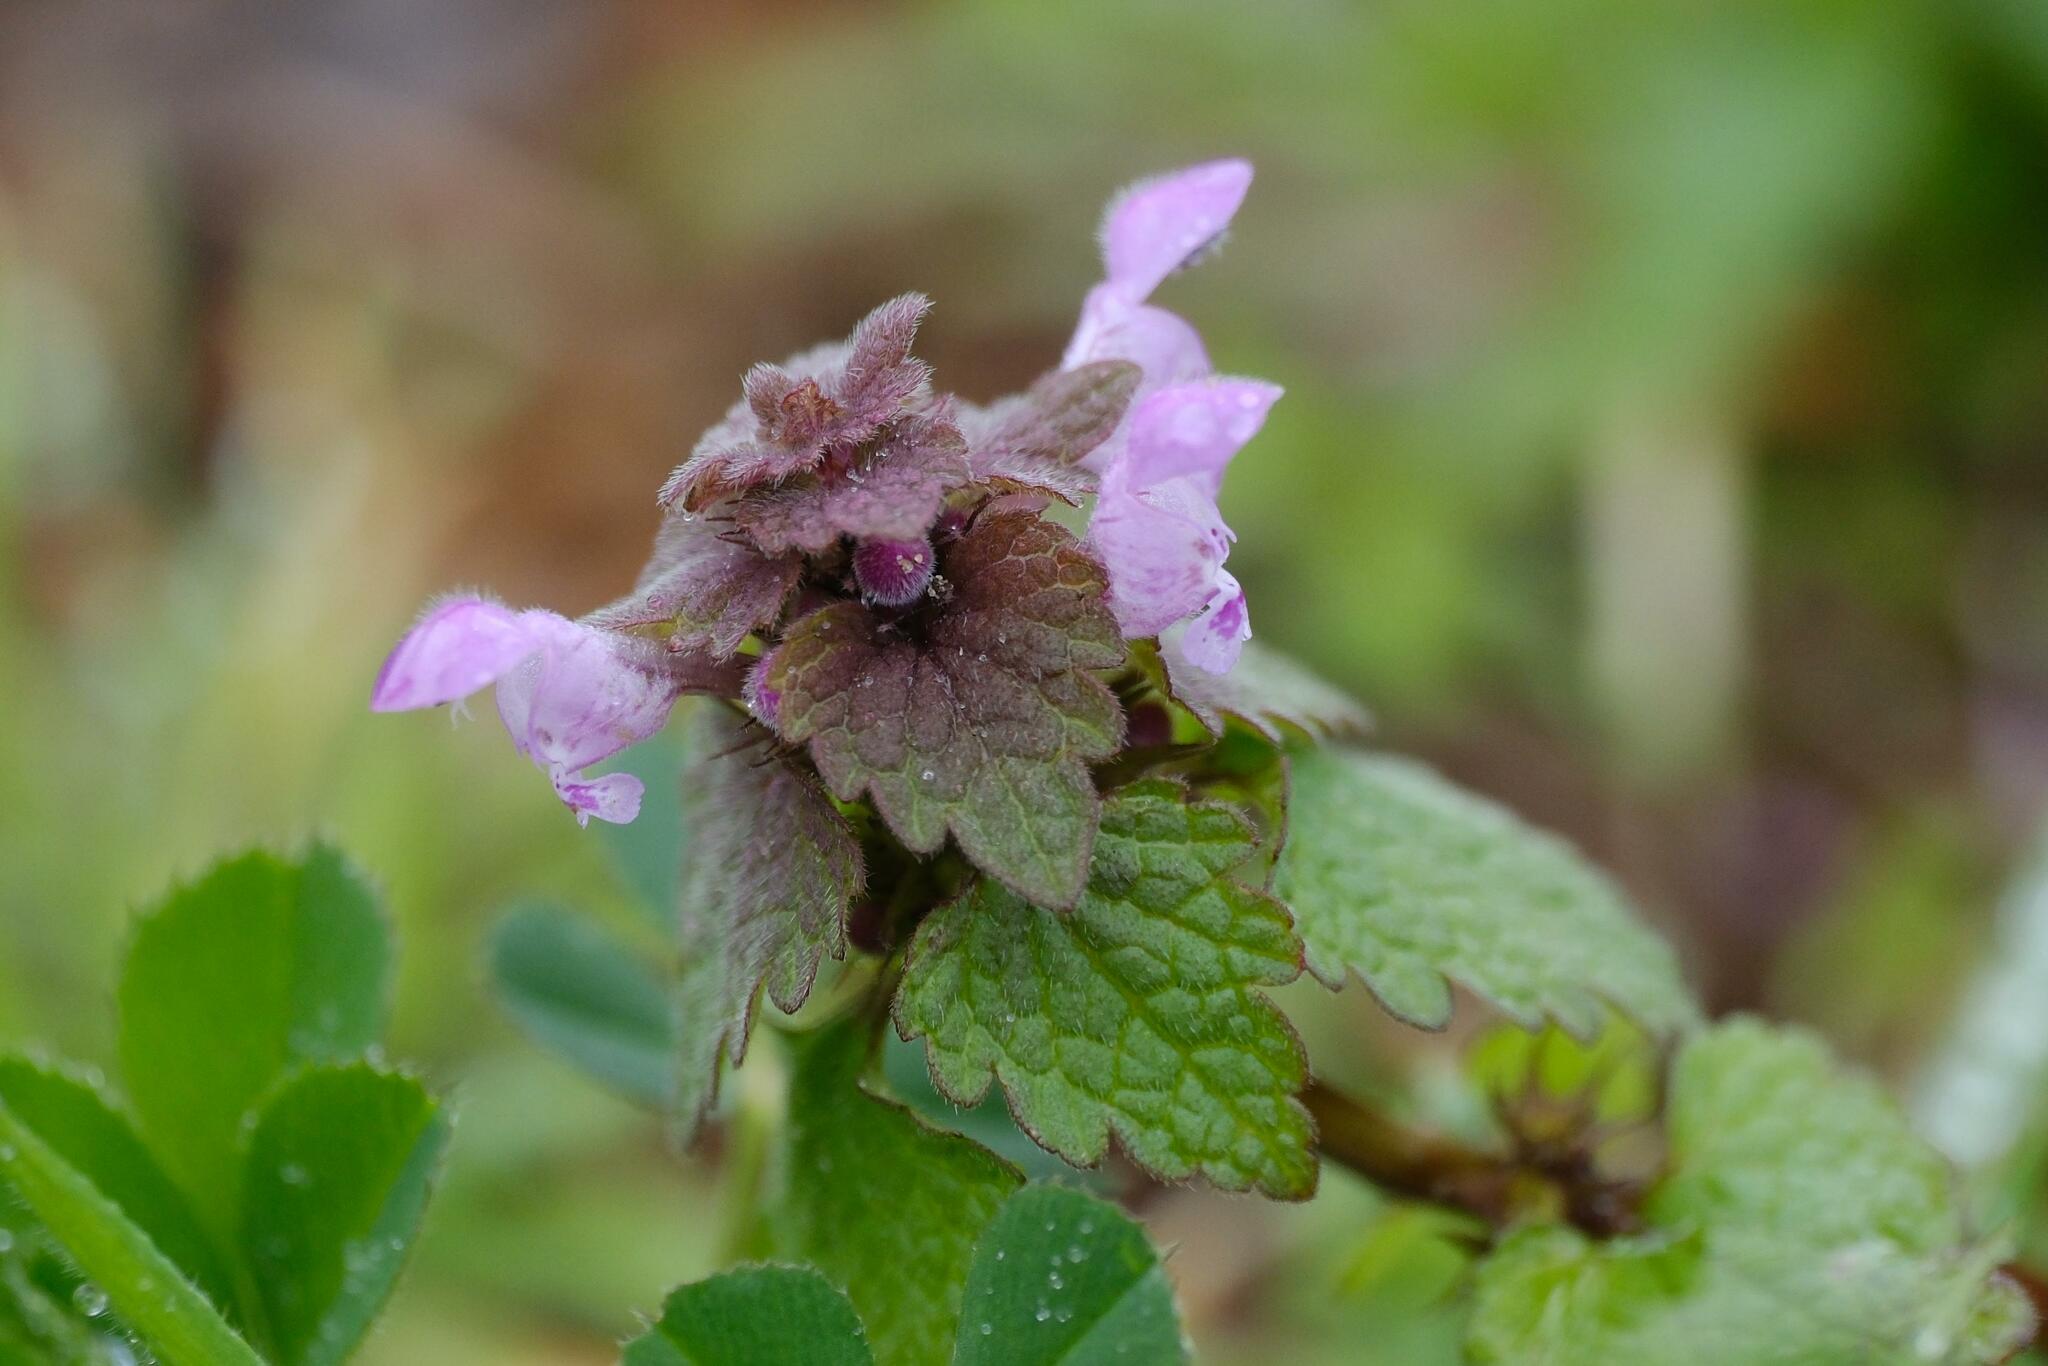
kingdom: Plantae
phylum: Tracheophyta
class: Magnoliopsida
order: Lamiales
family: Lamiaceae
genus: Lamium
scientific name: Lamium purpureum
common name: Red dead-nettle
